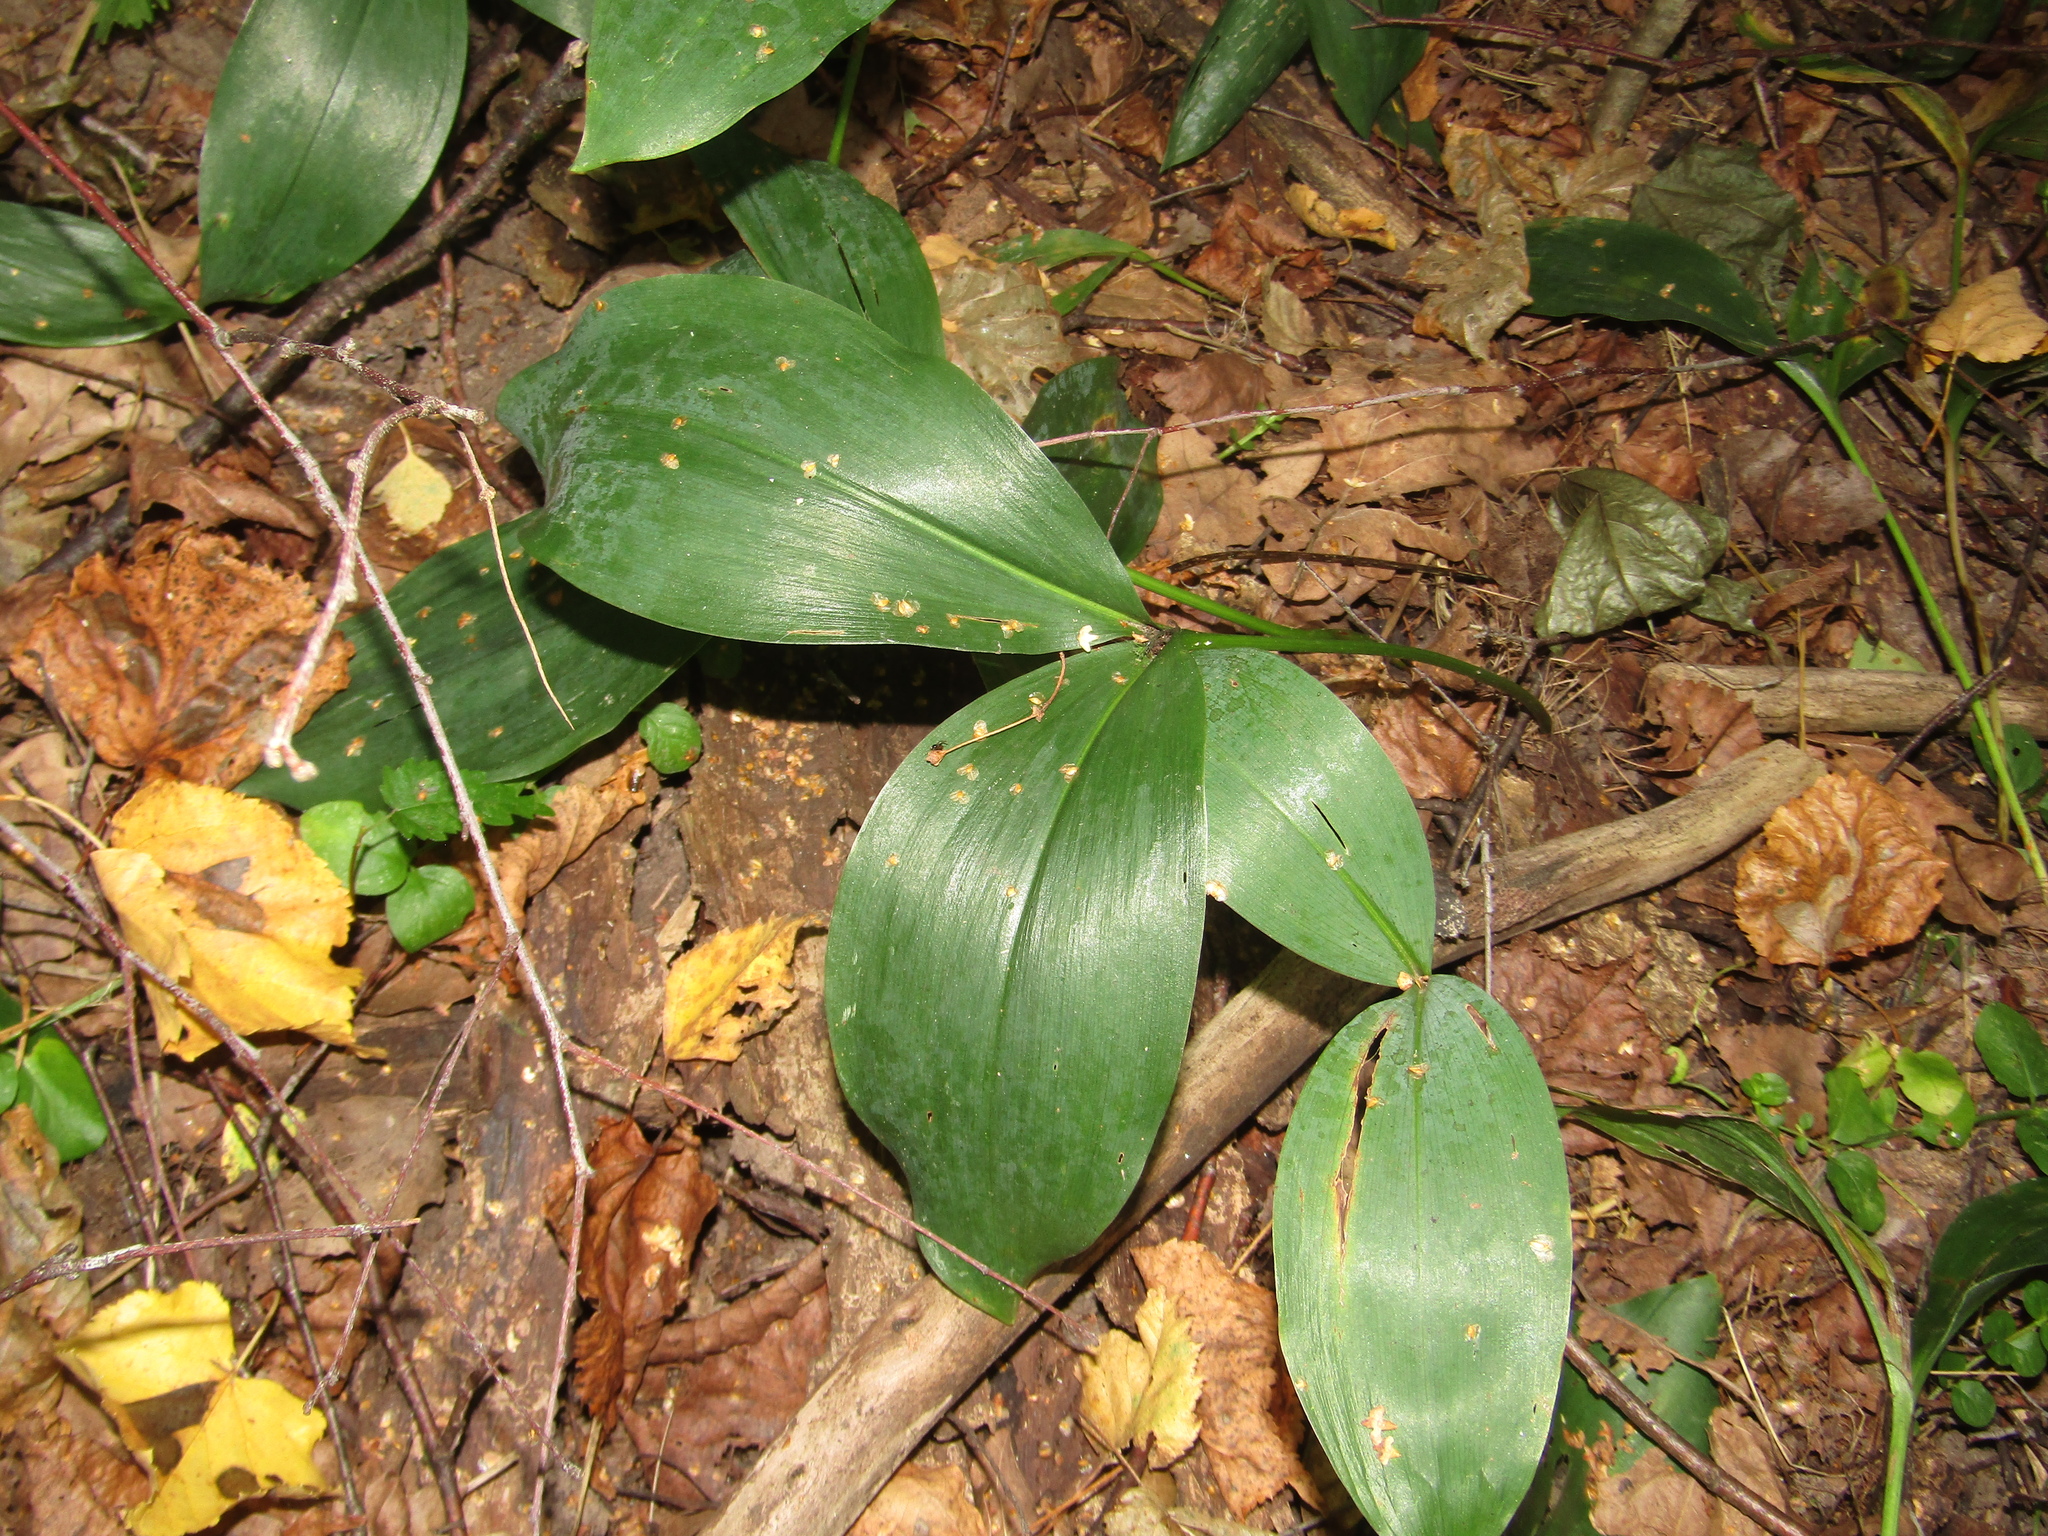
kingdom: Plantae
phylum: Tracheophyta
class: Liliopsida
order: Asparagales
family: Asparagaceae
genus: Convallaria
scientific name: Convallaria majalis
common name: Lily-of-the-valley
